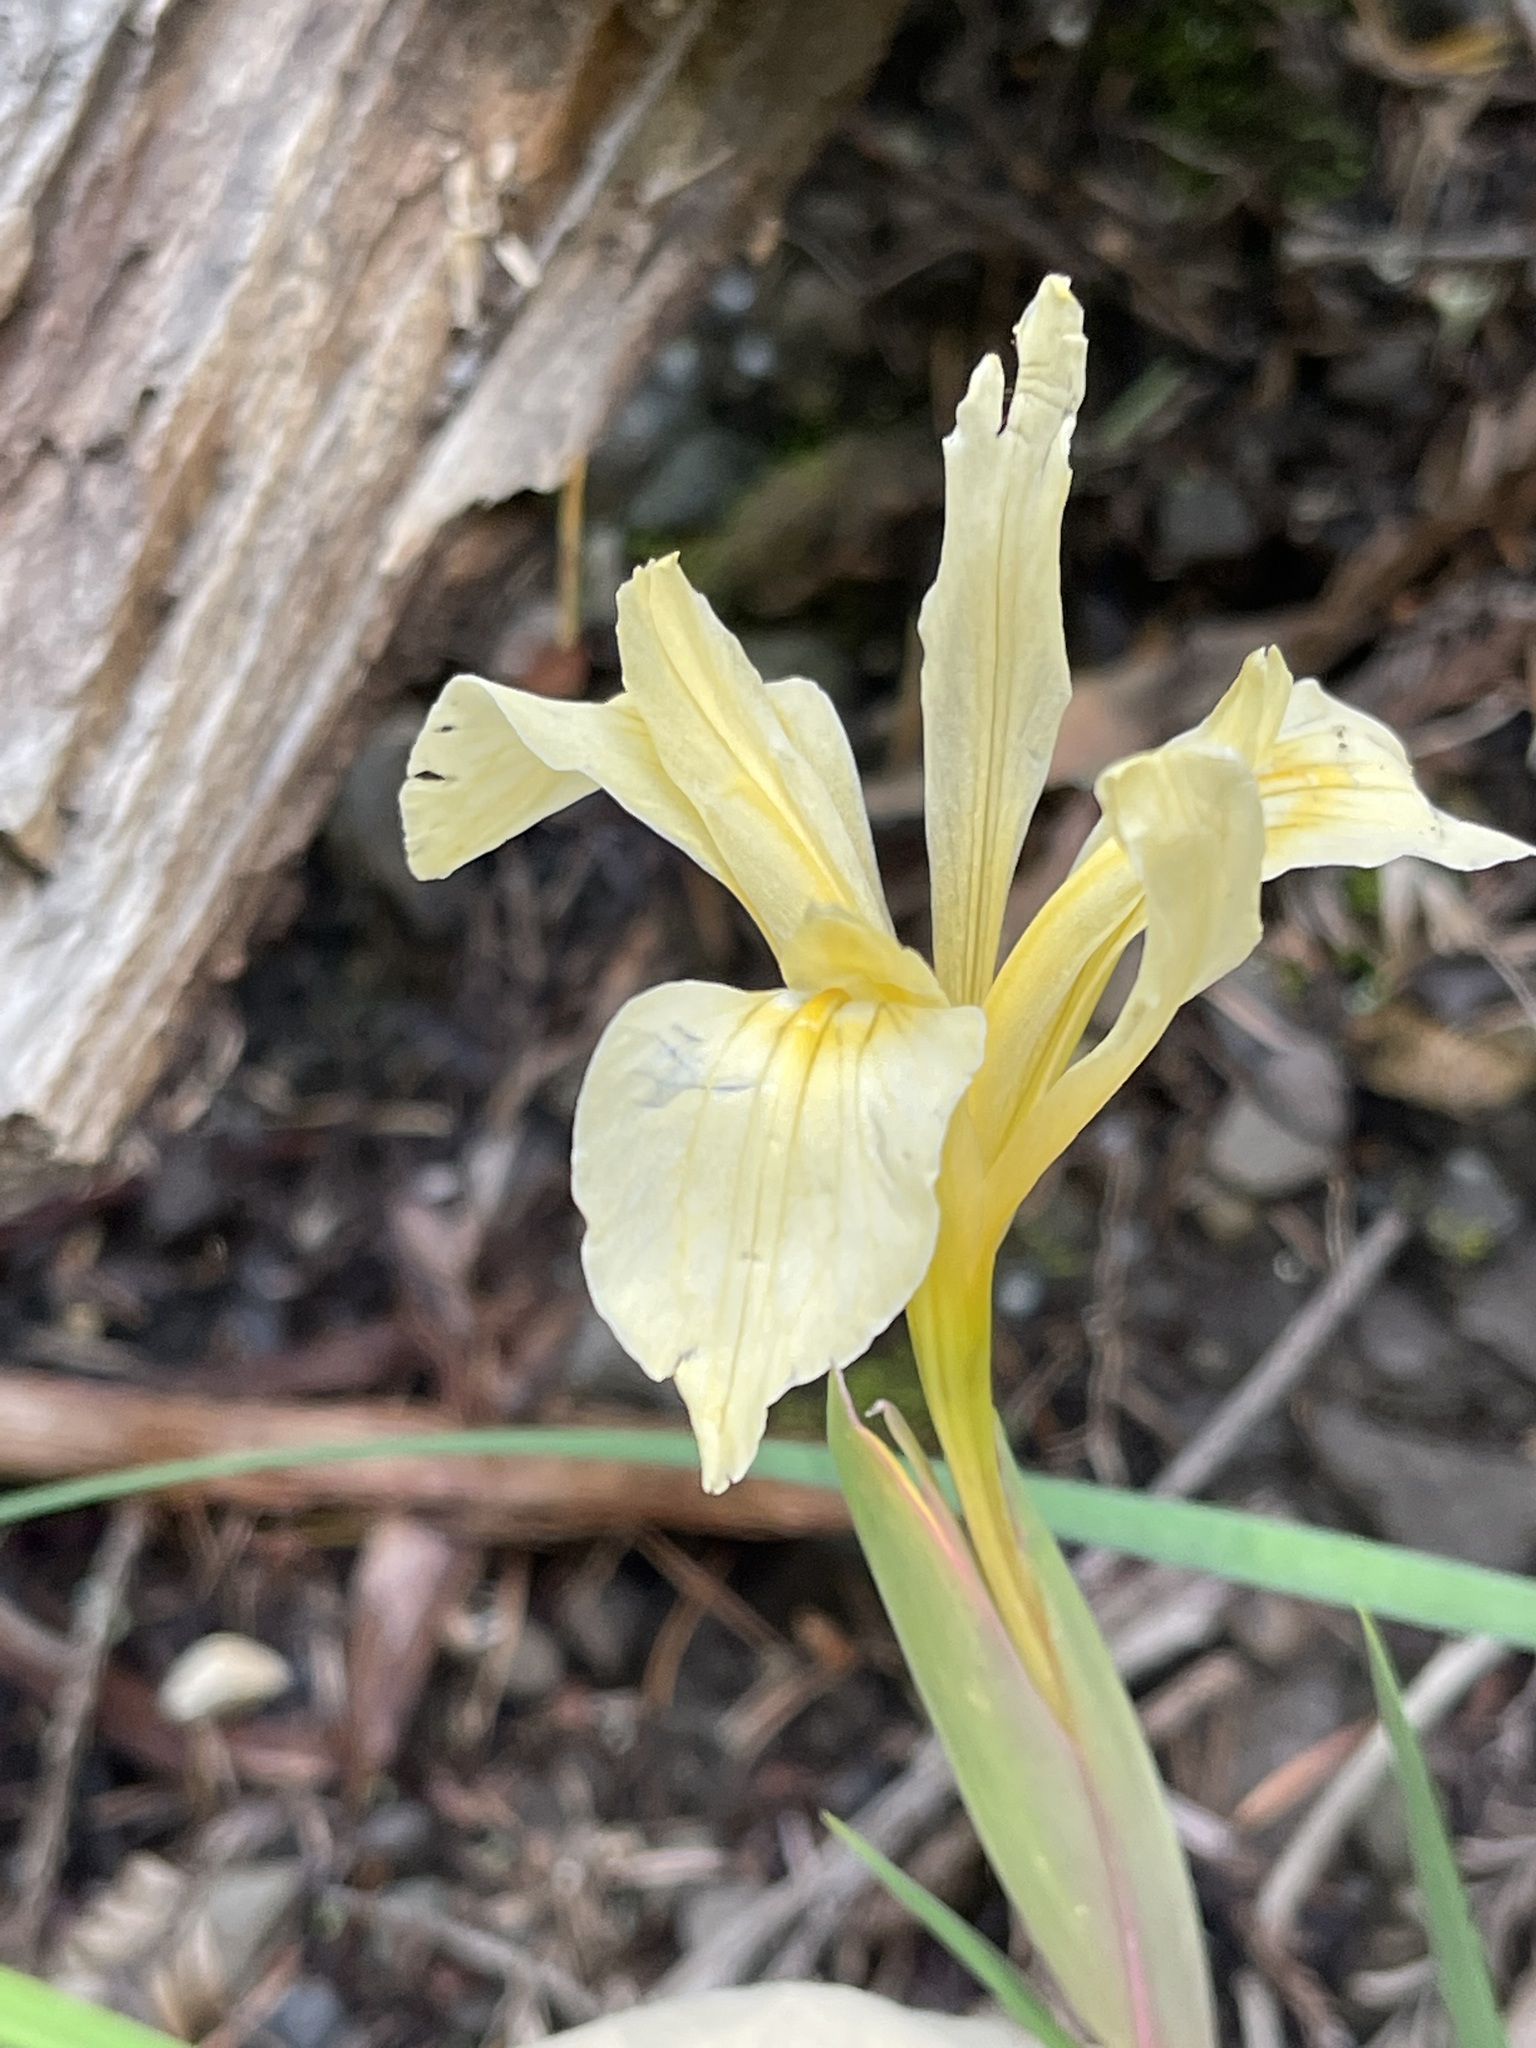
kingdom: Plantae
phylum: Tracheophyta
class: Liliopsida
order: Asparagales
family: Iridaceae
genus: Iris
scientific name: Iris fernaldii
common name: Fernald's iris
